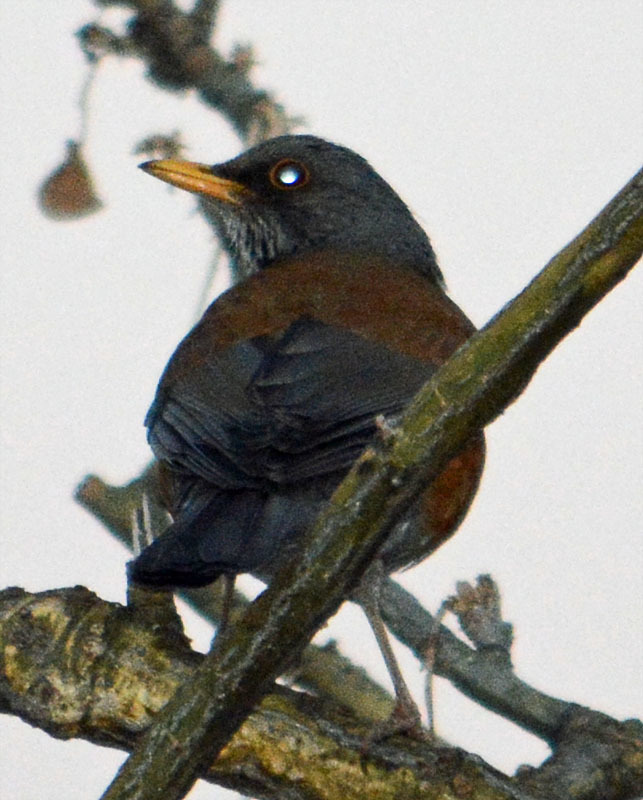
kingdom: Animalia
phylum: Chordata
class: Aves
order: Passeriformes
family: Turdidae
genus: Turdus
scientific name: Turdus rufopalliatus
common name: Rufous-backed robin
